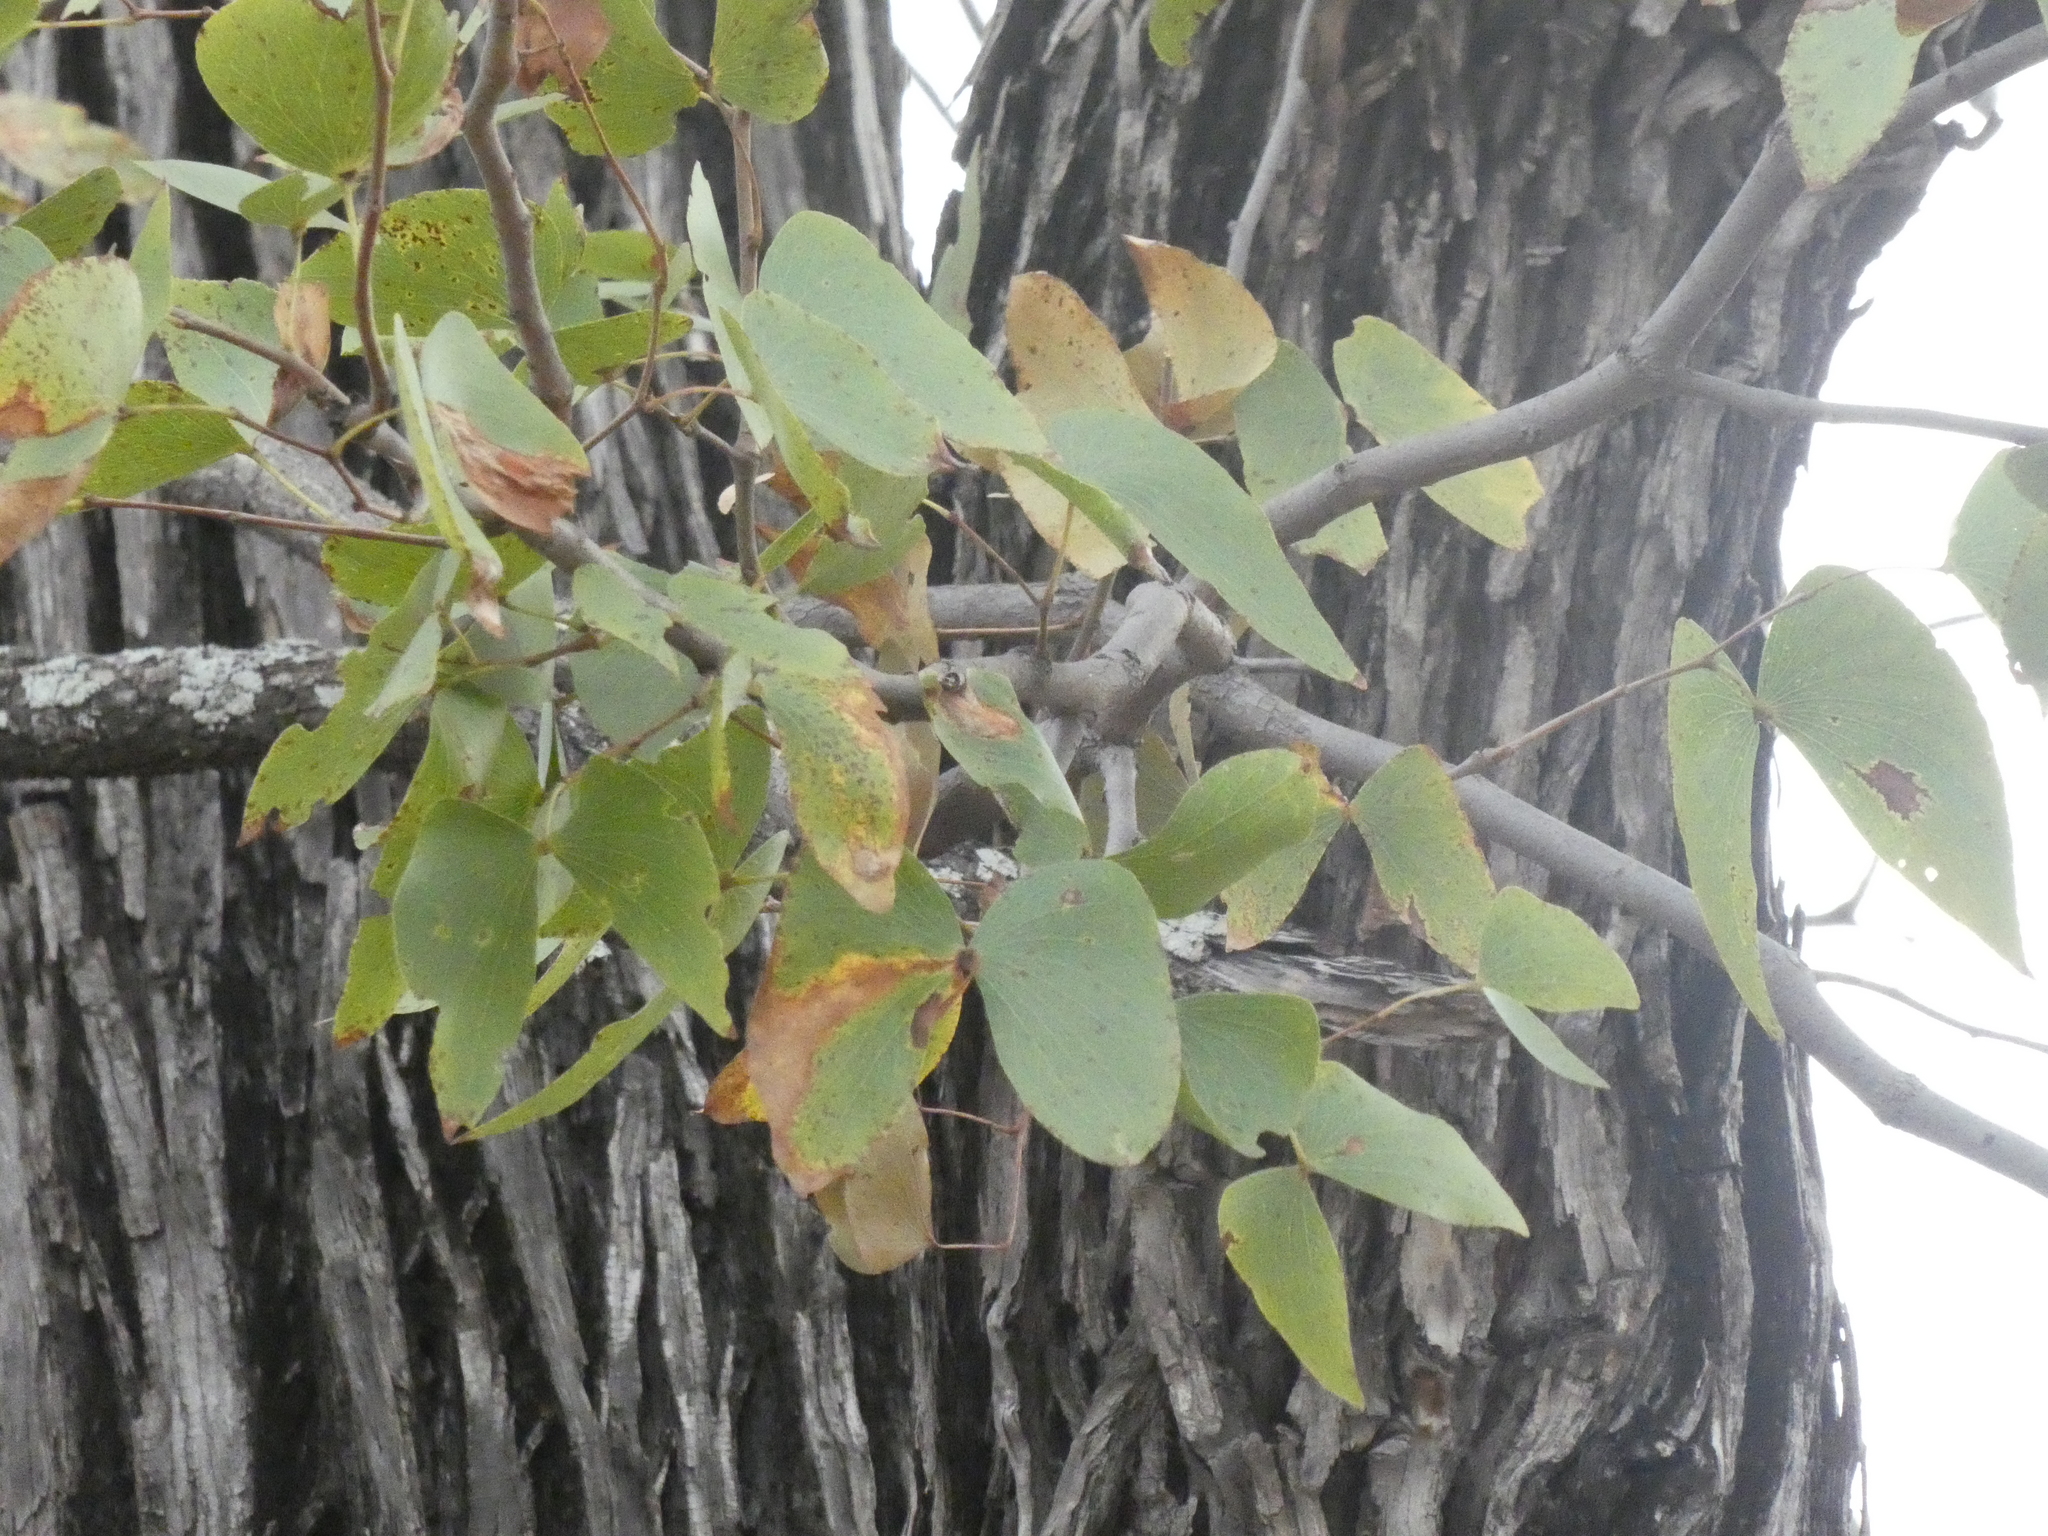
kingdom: Plantae
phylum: Tracheophyta
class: Magnoliopsida
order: Fabales
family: Fabaceae
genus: Colophospermum
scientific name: Colophospermum mopane
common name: Mopane
